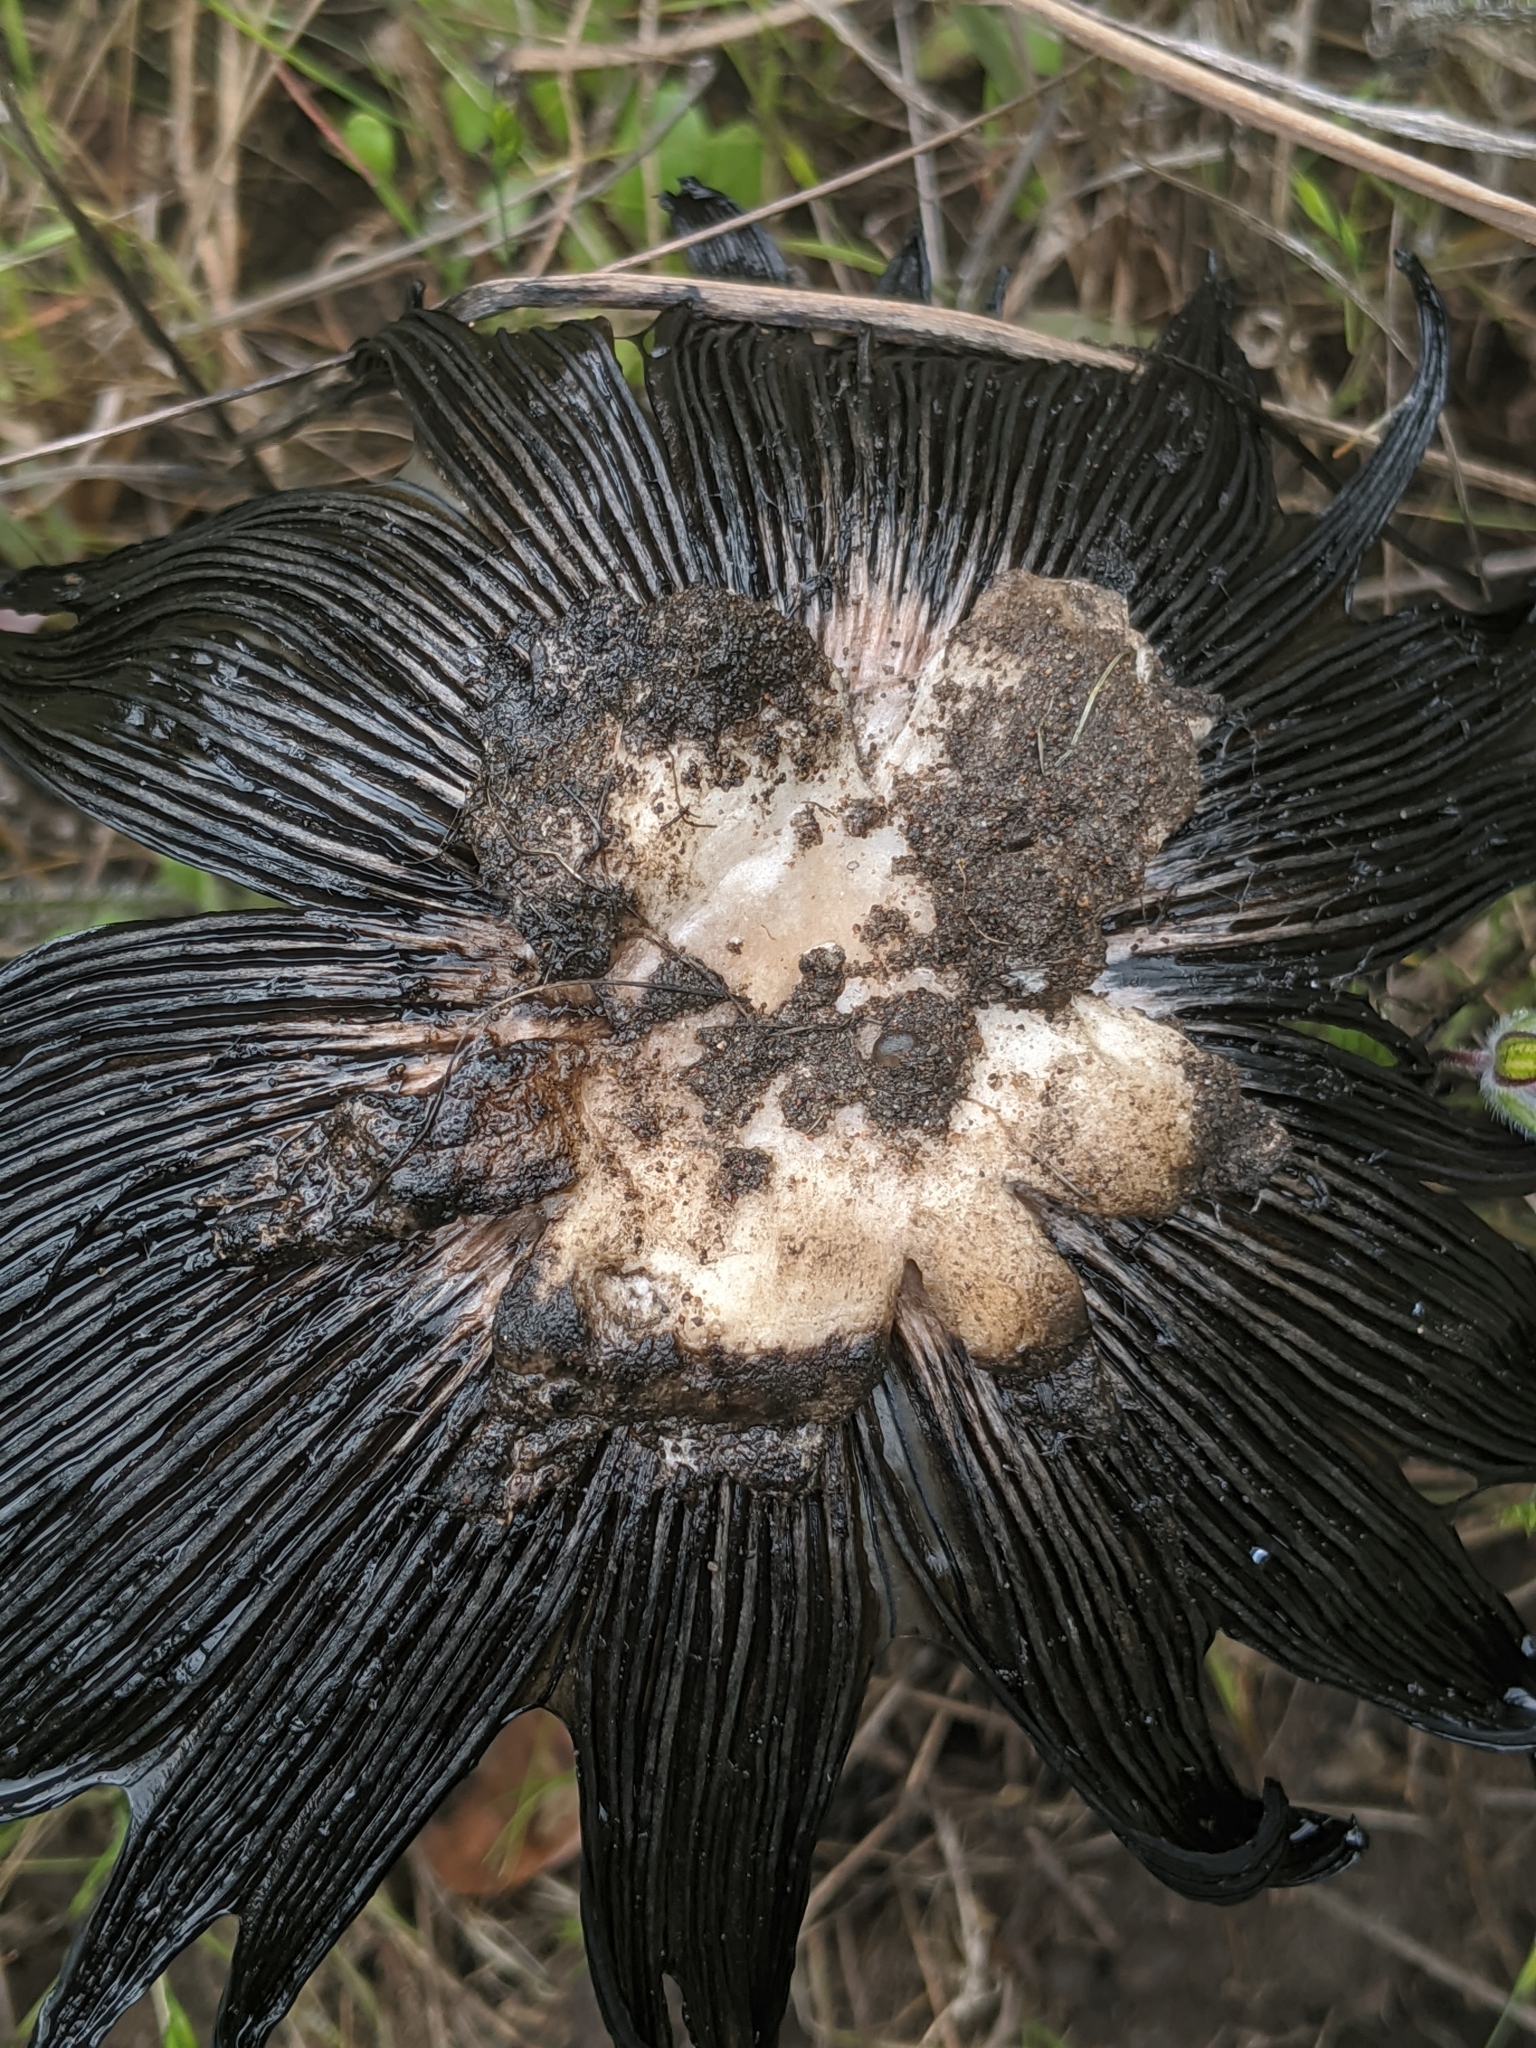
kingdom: Fungi
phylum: Basidiomycota
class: Agaricomycetes
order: Agaricales
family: Agaricaceae
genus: Coprinus
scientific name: Coprinus calyptratus
